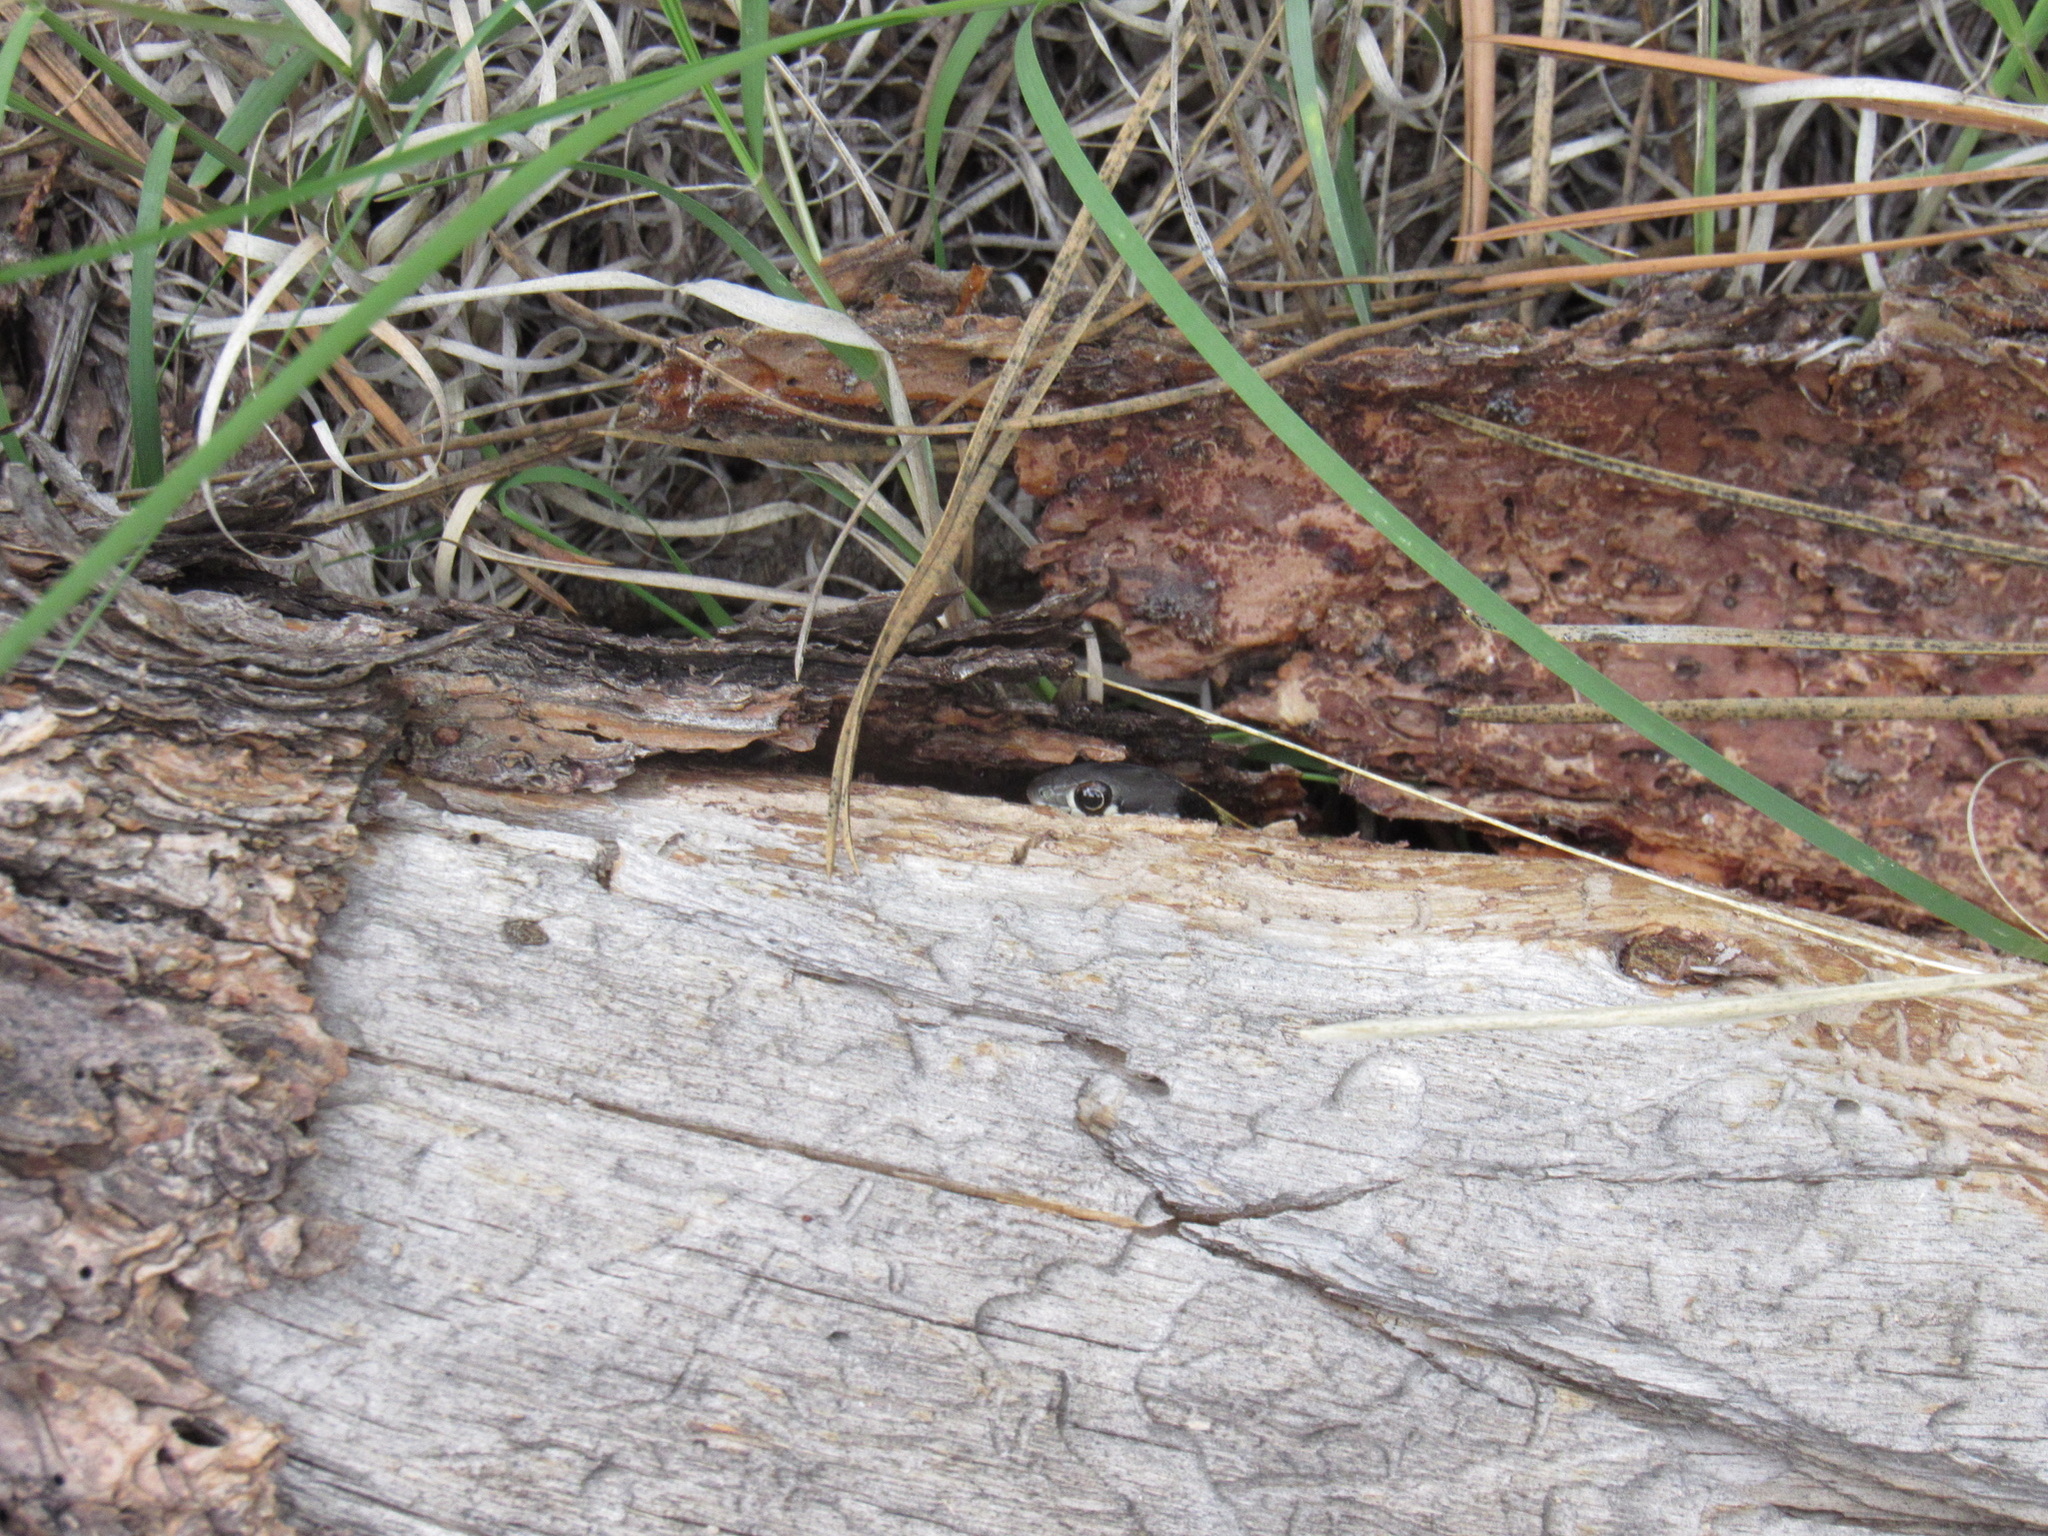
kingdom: Animalia
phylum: Chordata
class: Squamata
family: Colubridae
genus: Thamnophis
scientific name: Thamnophis cyrtopsis
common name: Black-necked gartersnake
